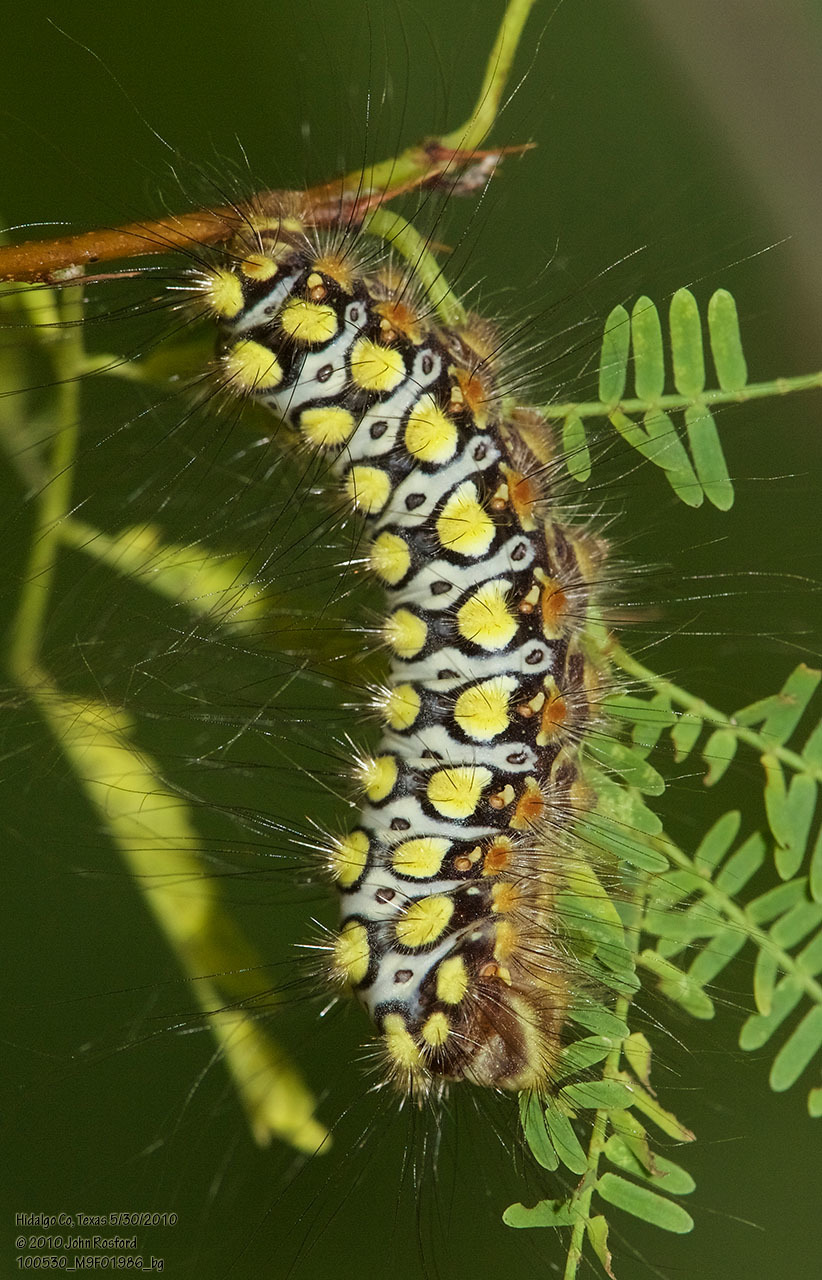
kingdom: Animalia
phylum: Arthropoda
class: Insecta
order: Lepidoptera
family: Megalopygidae
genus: Norape
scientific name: Norape virgo
